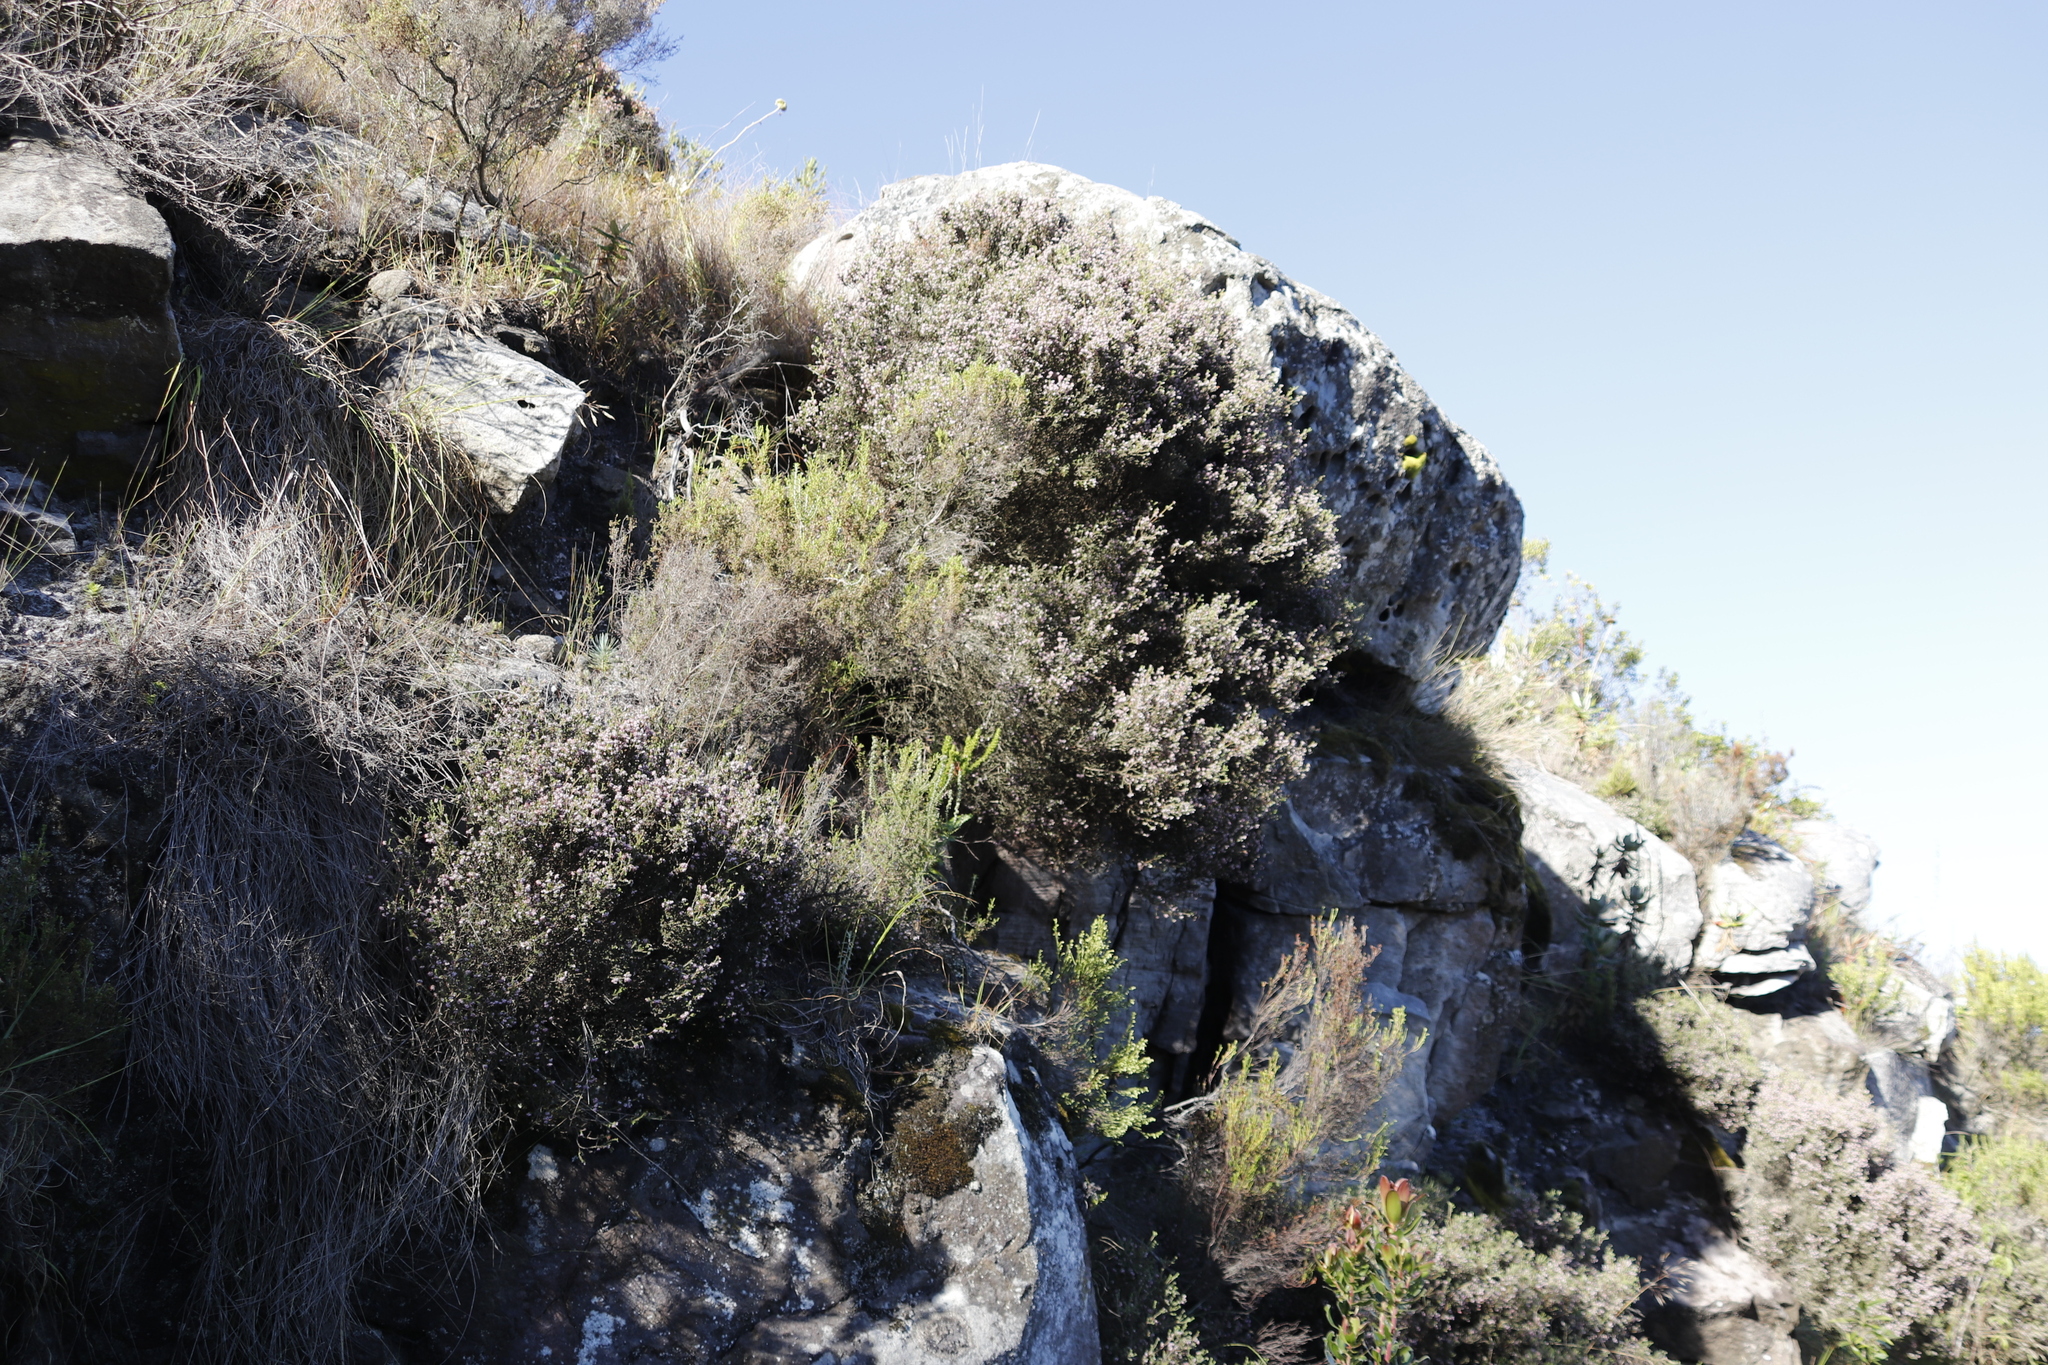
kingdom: Plantae
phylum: Tracheophyta
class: Magnoliopsida
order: Ericales
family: Ericaceae
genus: Erica
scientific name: Erica ericoides
